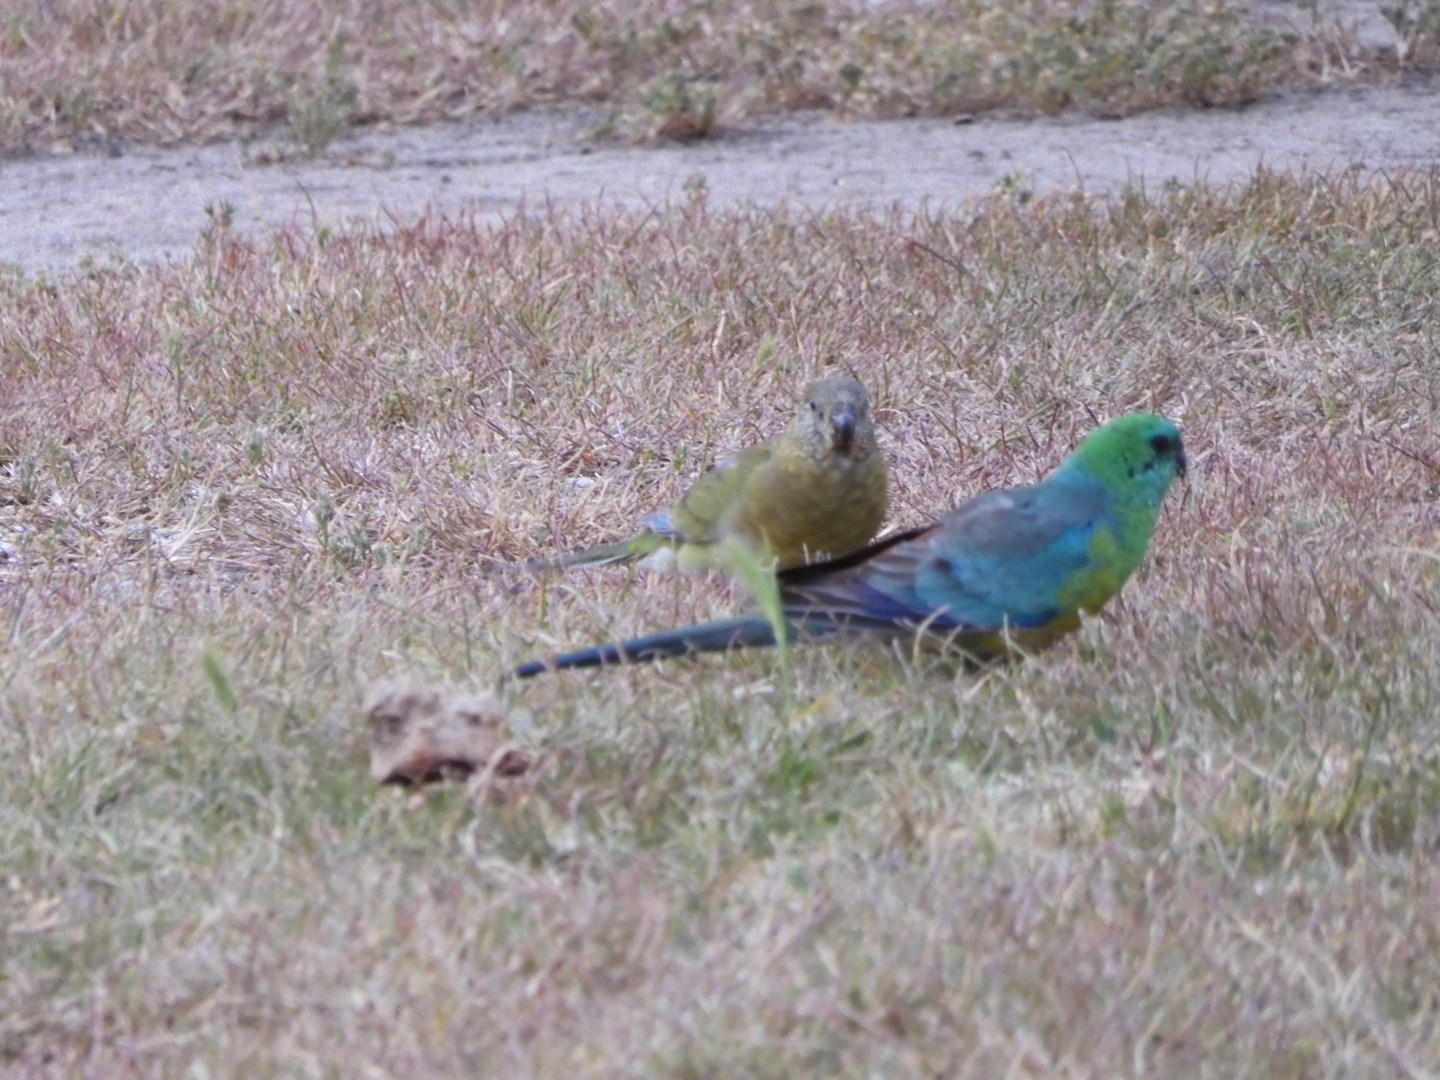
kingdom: Animalia
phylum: Chordata
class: Aves
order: Psittaciformes
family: Psittacidae
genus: Psephotus
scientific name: Psephotus haematonotus
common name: Red-rumped parrot
